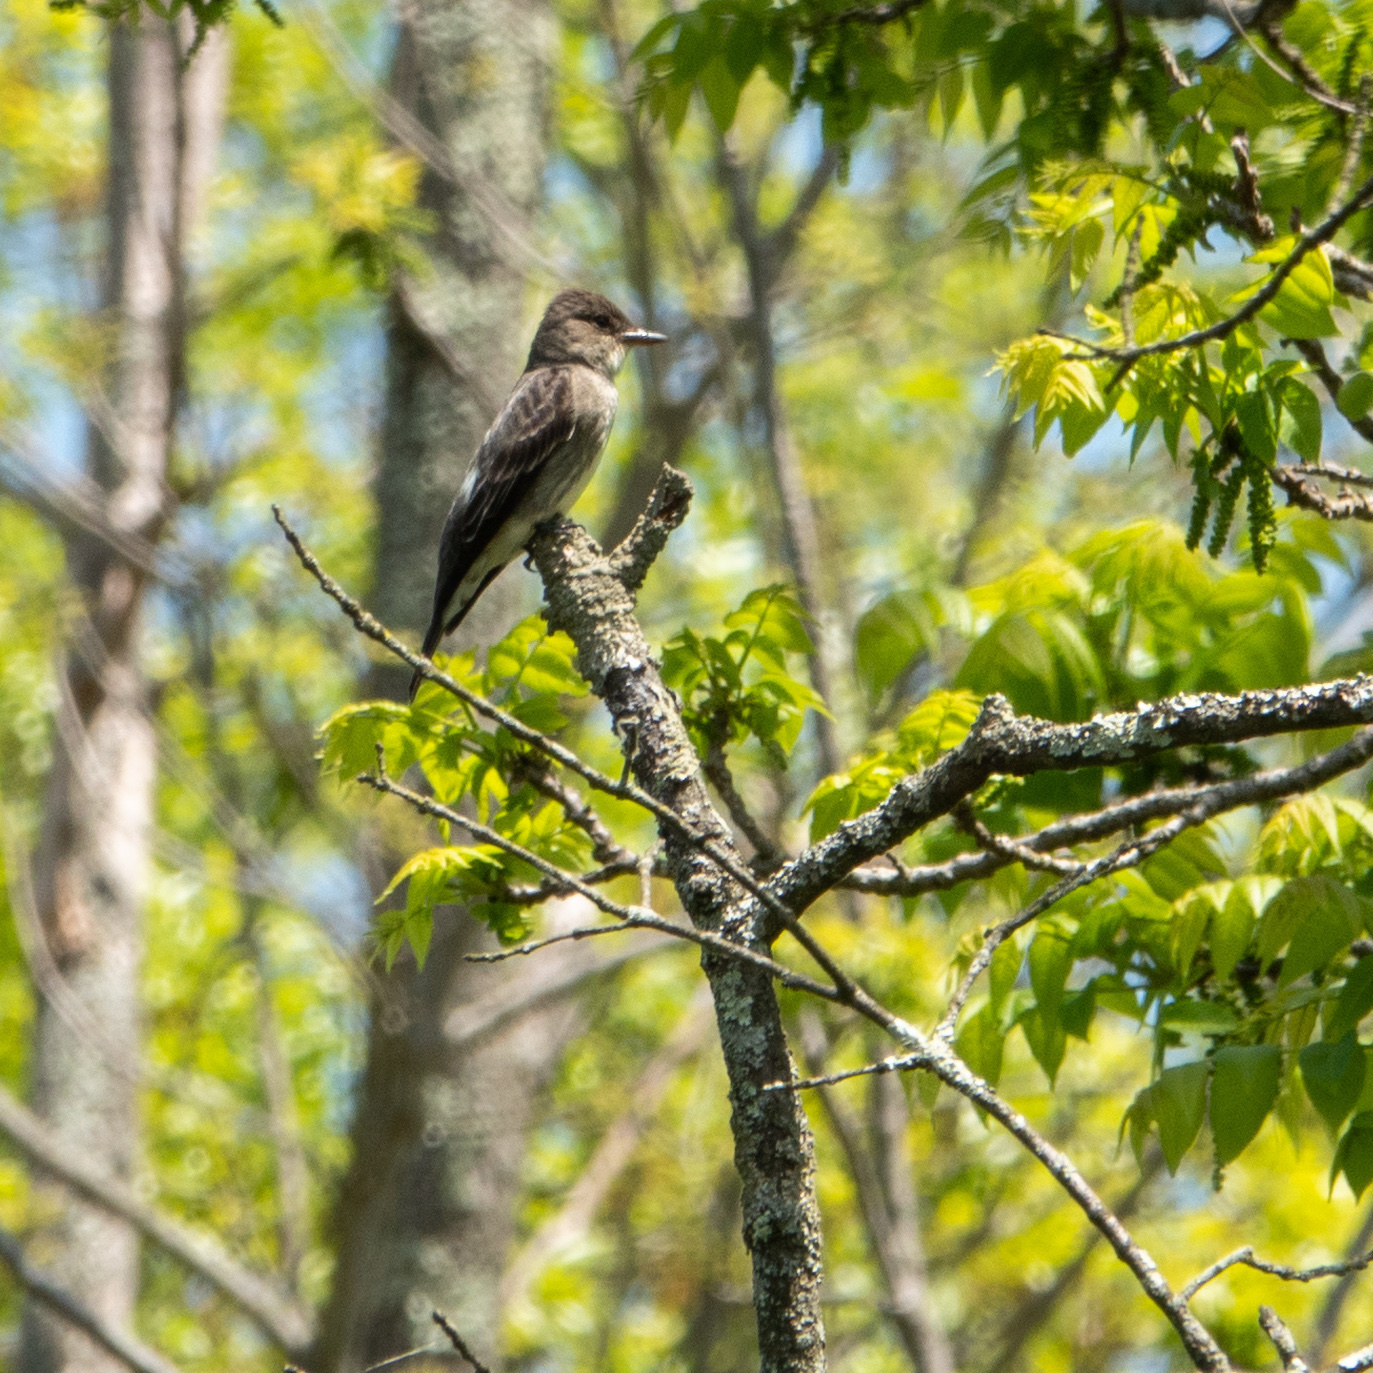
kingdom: Animalia
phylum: Chordata
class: Aves
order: Passeriformes
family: Tyrannidae
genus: Contopus
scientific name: Contopus cooperi
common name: Olive-sided flycatcher
